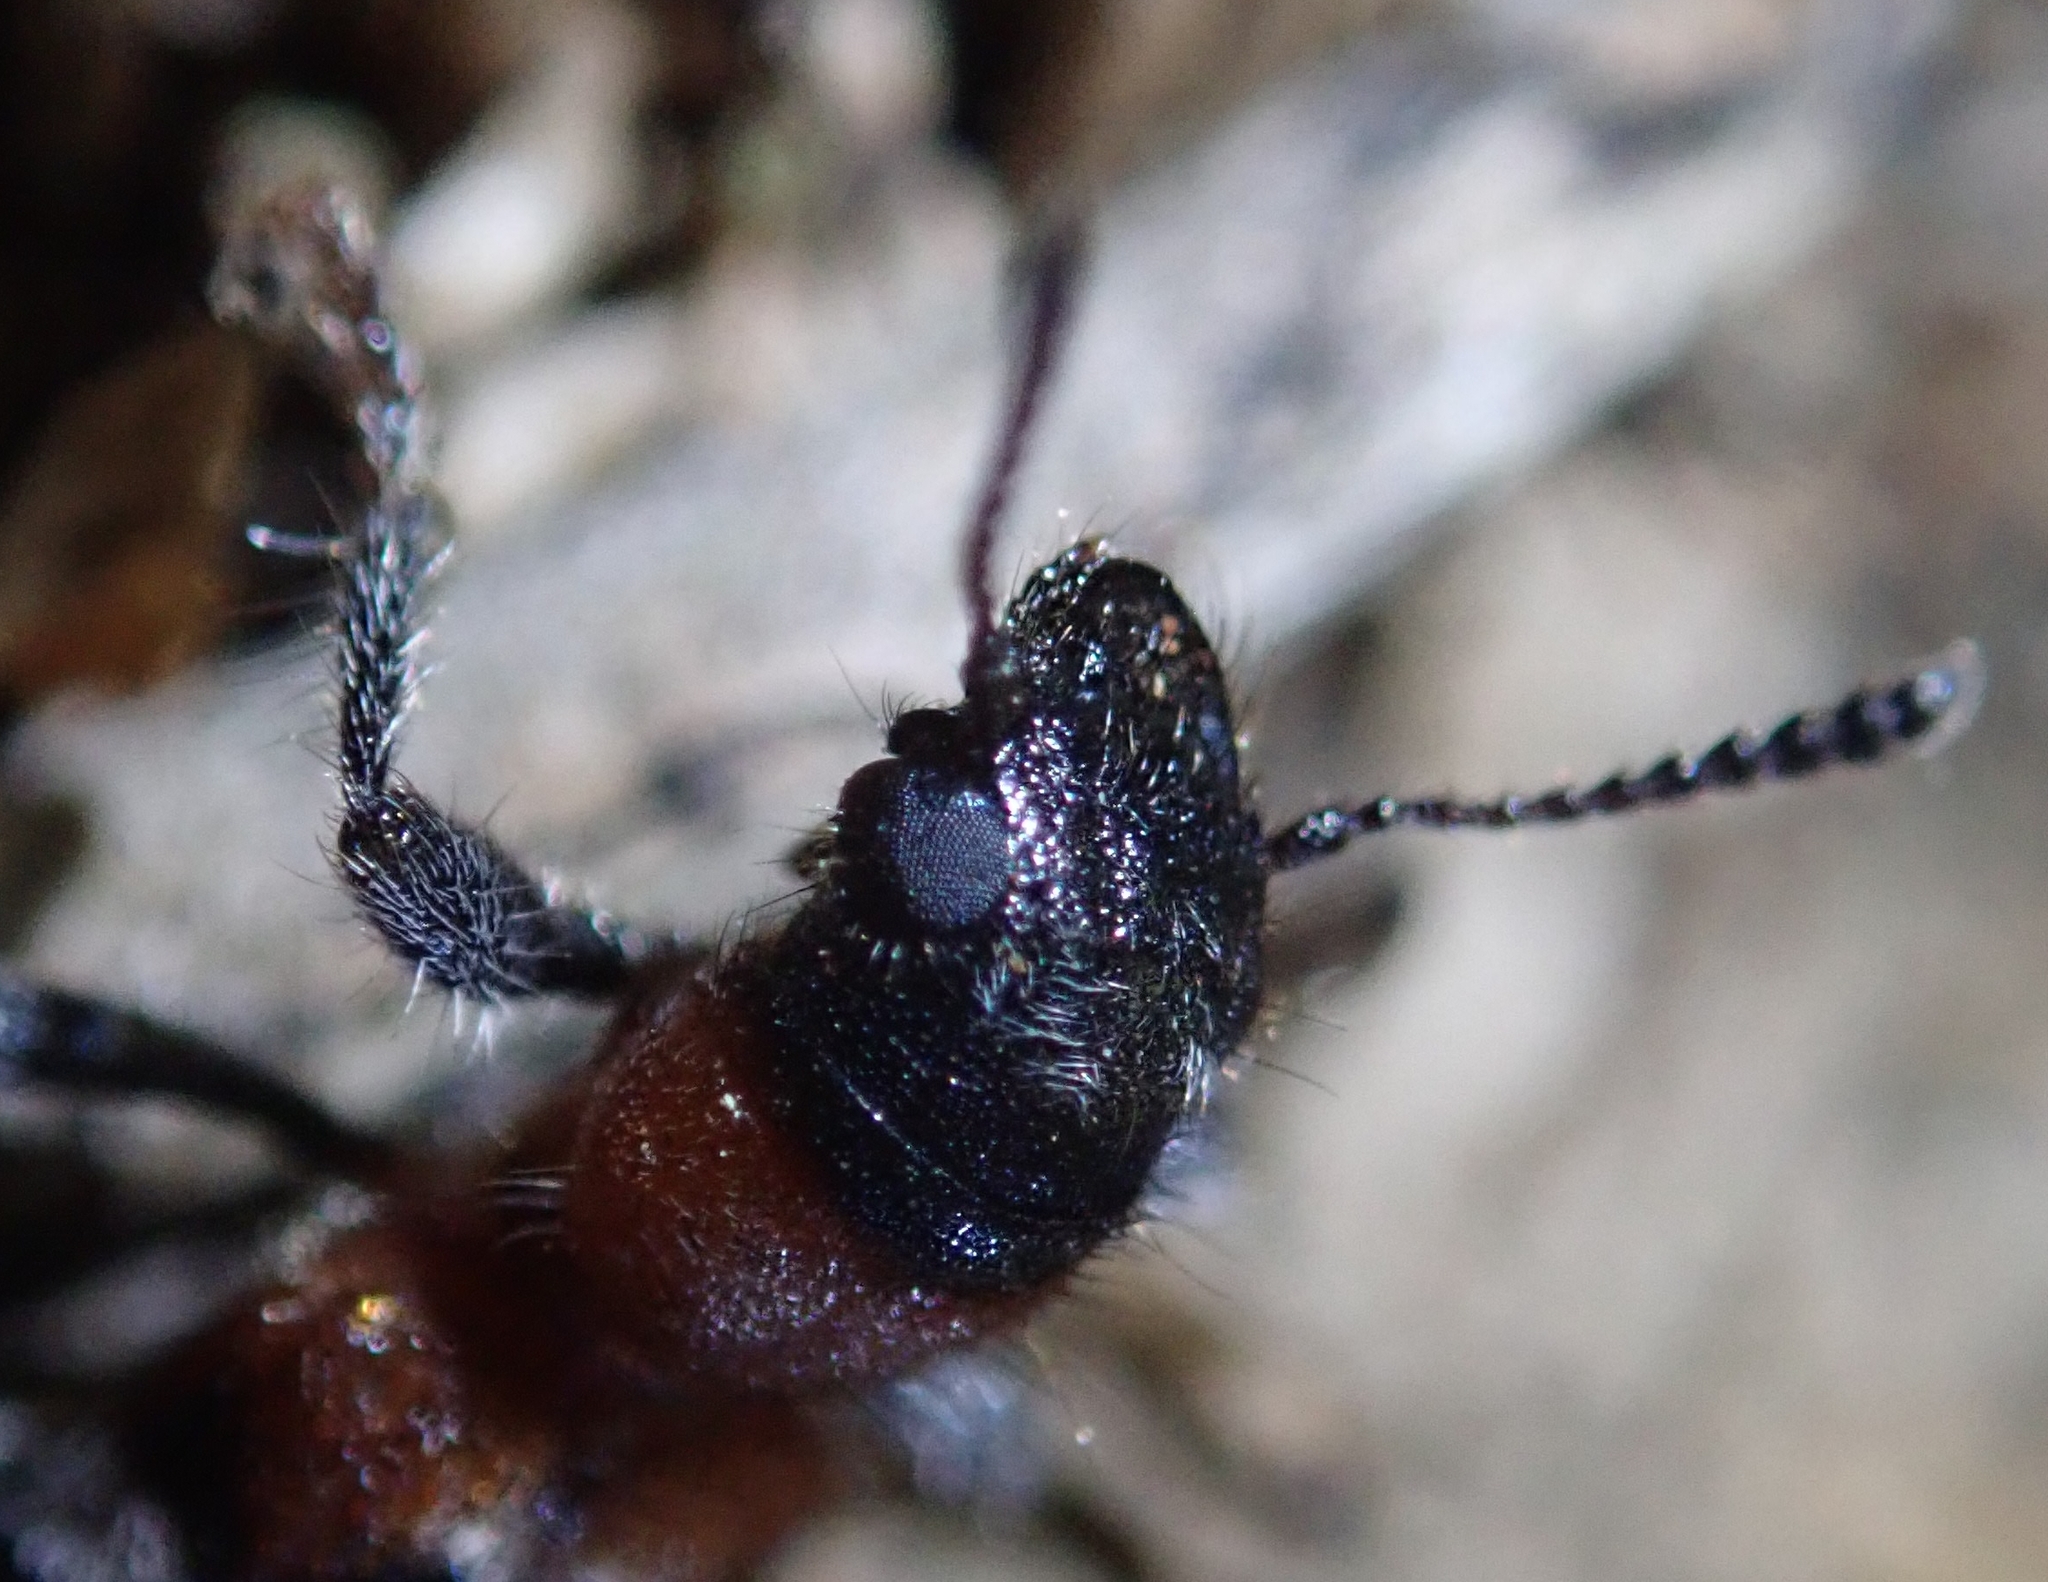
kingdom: Animalia
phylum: Arthropoda
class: Insecta
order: Coleoptera
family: Cleridae
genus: Thanasimus
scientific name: Thanasimus formicarius
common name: Ant beetle
